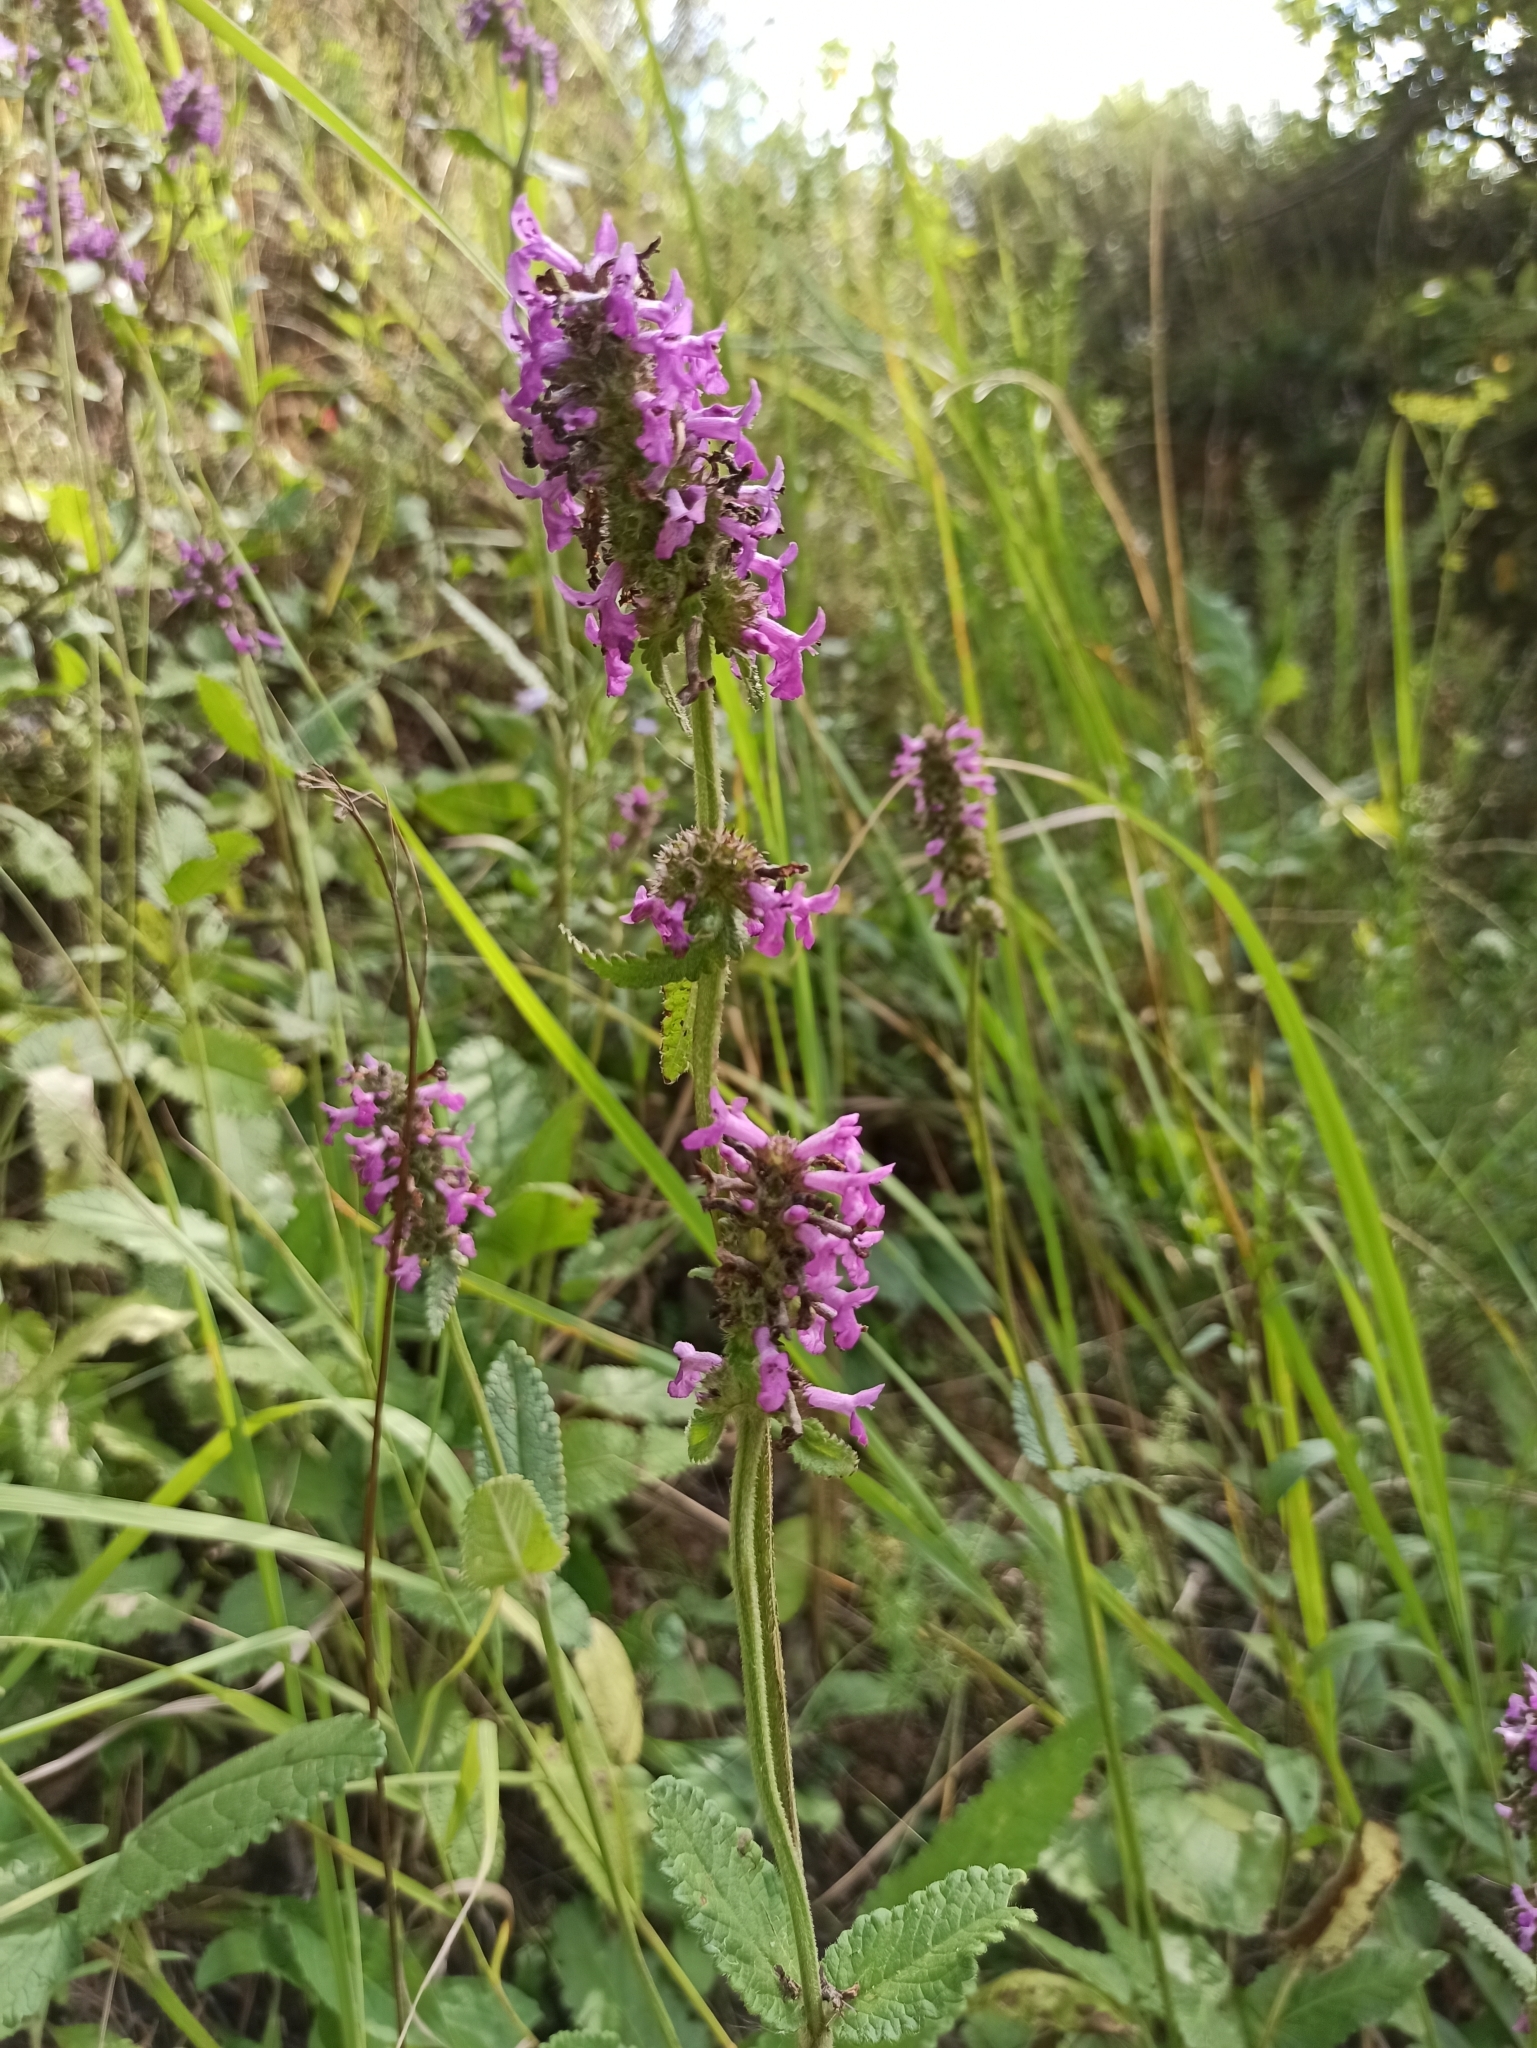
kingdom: Plantae
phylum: Tracheophyta
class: Magnoliopsida
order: Lamiales
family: Lamiaceae
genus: Betonica
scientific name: Betonica officinalis
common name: Bishop's-wort
